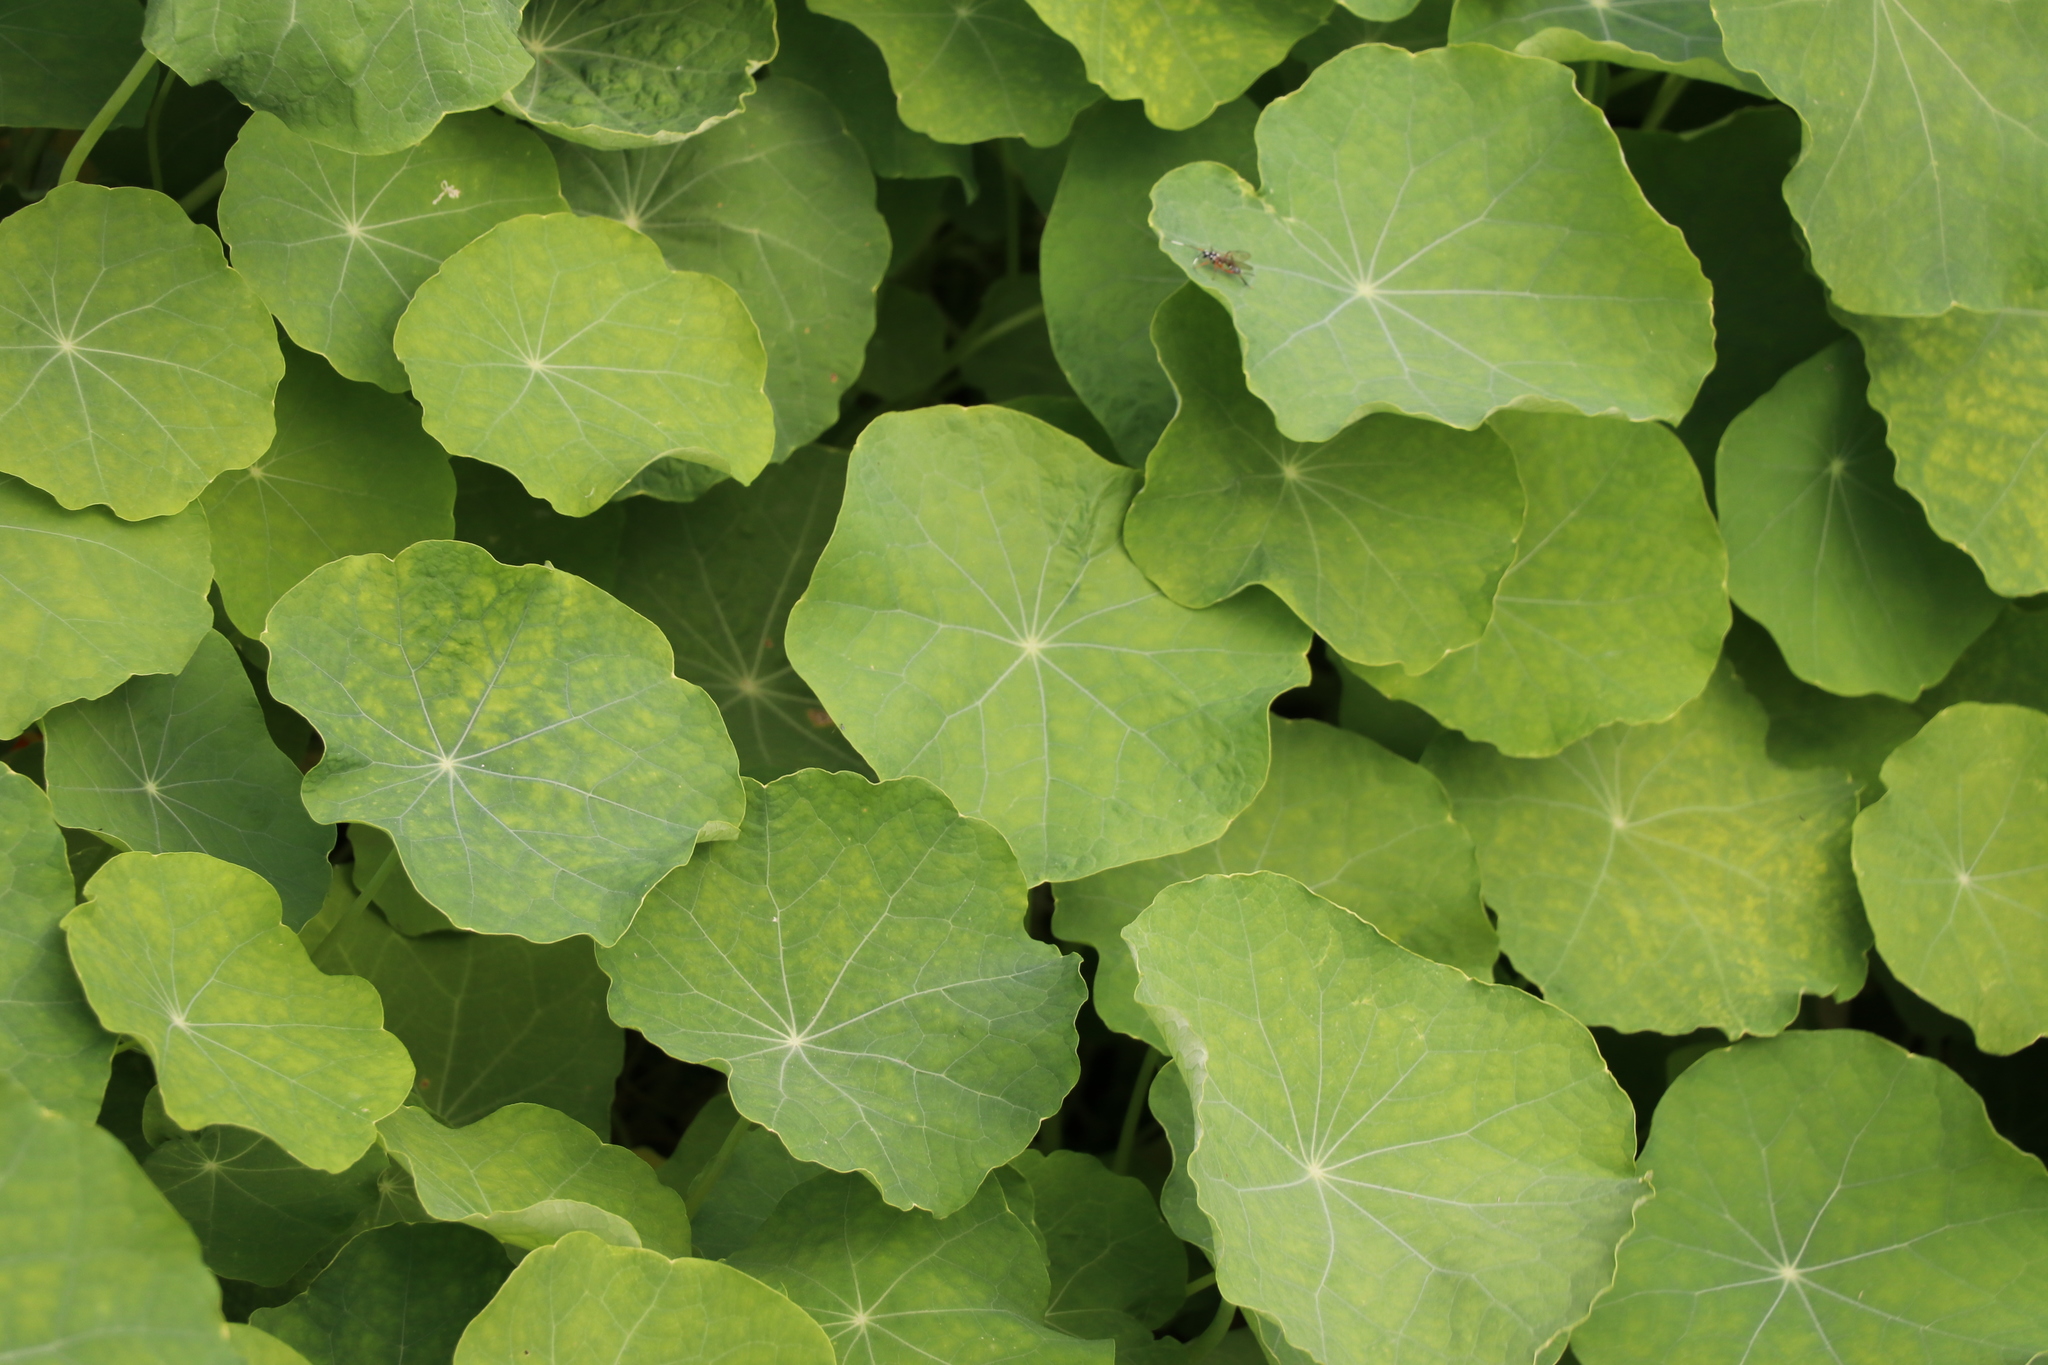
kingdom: Plantae
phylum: Tracheophyta
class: Magnoliopsida
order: Brassicales
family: Tropaeolaceae
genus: Tropaeolum
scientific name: Tropaeolum majus
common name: Nasturtium
